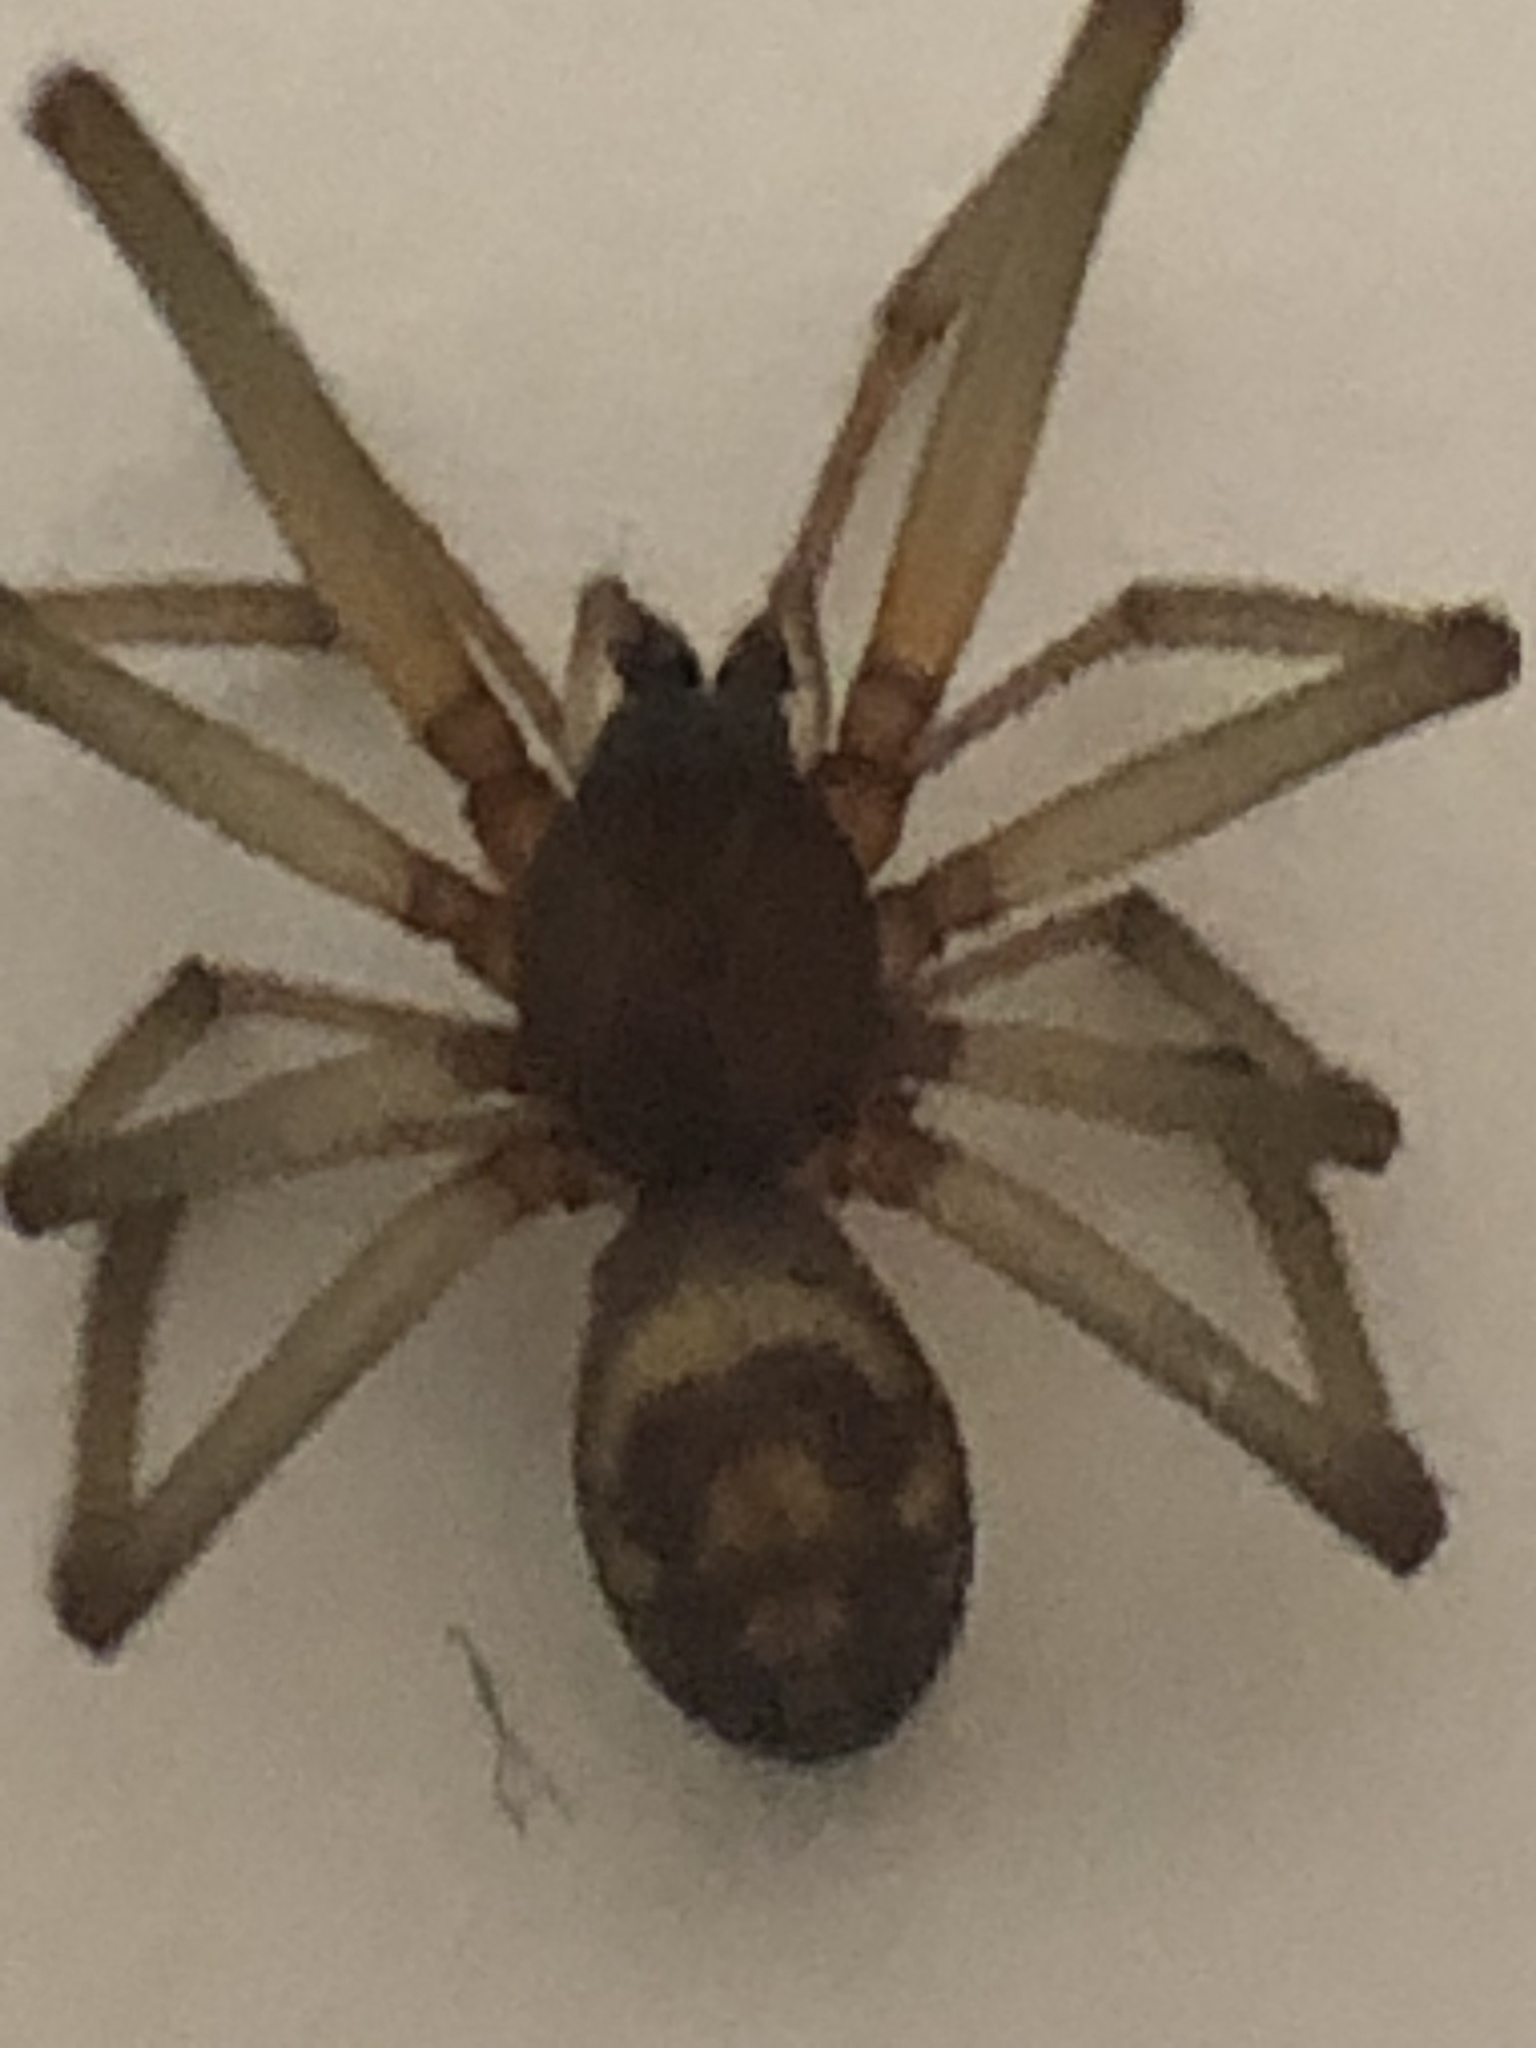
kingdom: Animalia
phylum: Arthropoda
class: Arachnida
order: Araneae
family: Theridiidae
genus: Steatoda
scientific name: Steatoda grossa
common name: False black widow
